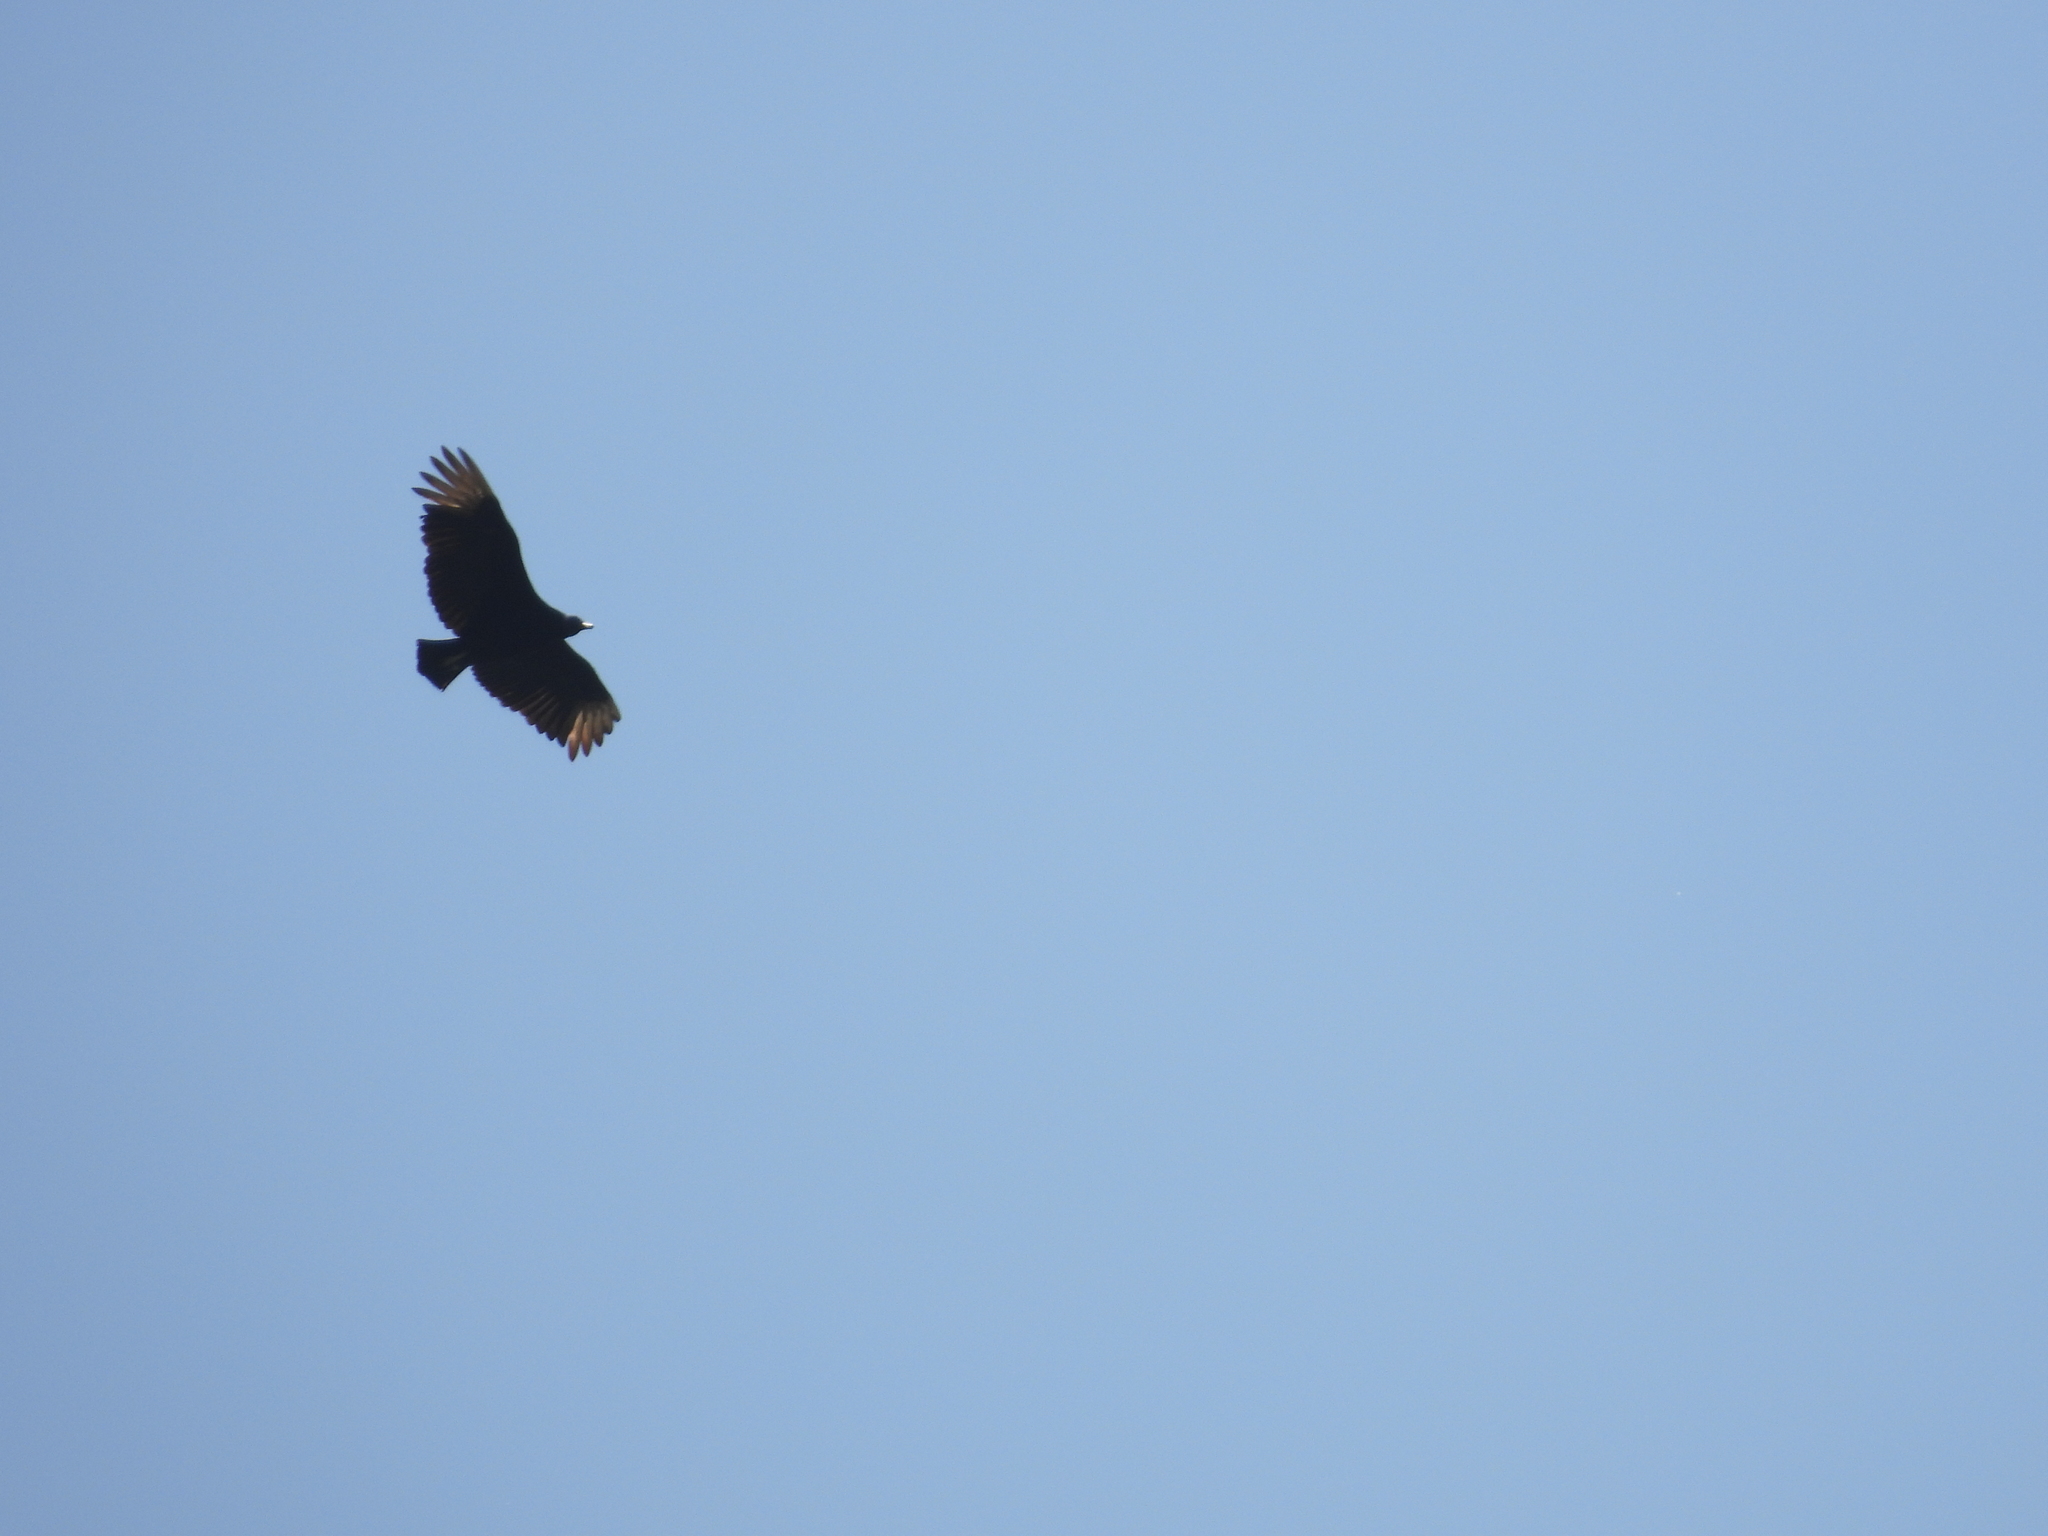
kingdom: Animalia
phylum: Chordata
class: Aves
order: Accipitriformes
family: Cathartidae
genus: Coragyps
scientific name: Coragyps atratus
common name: Black vulture
